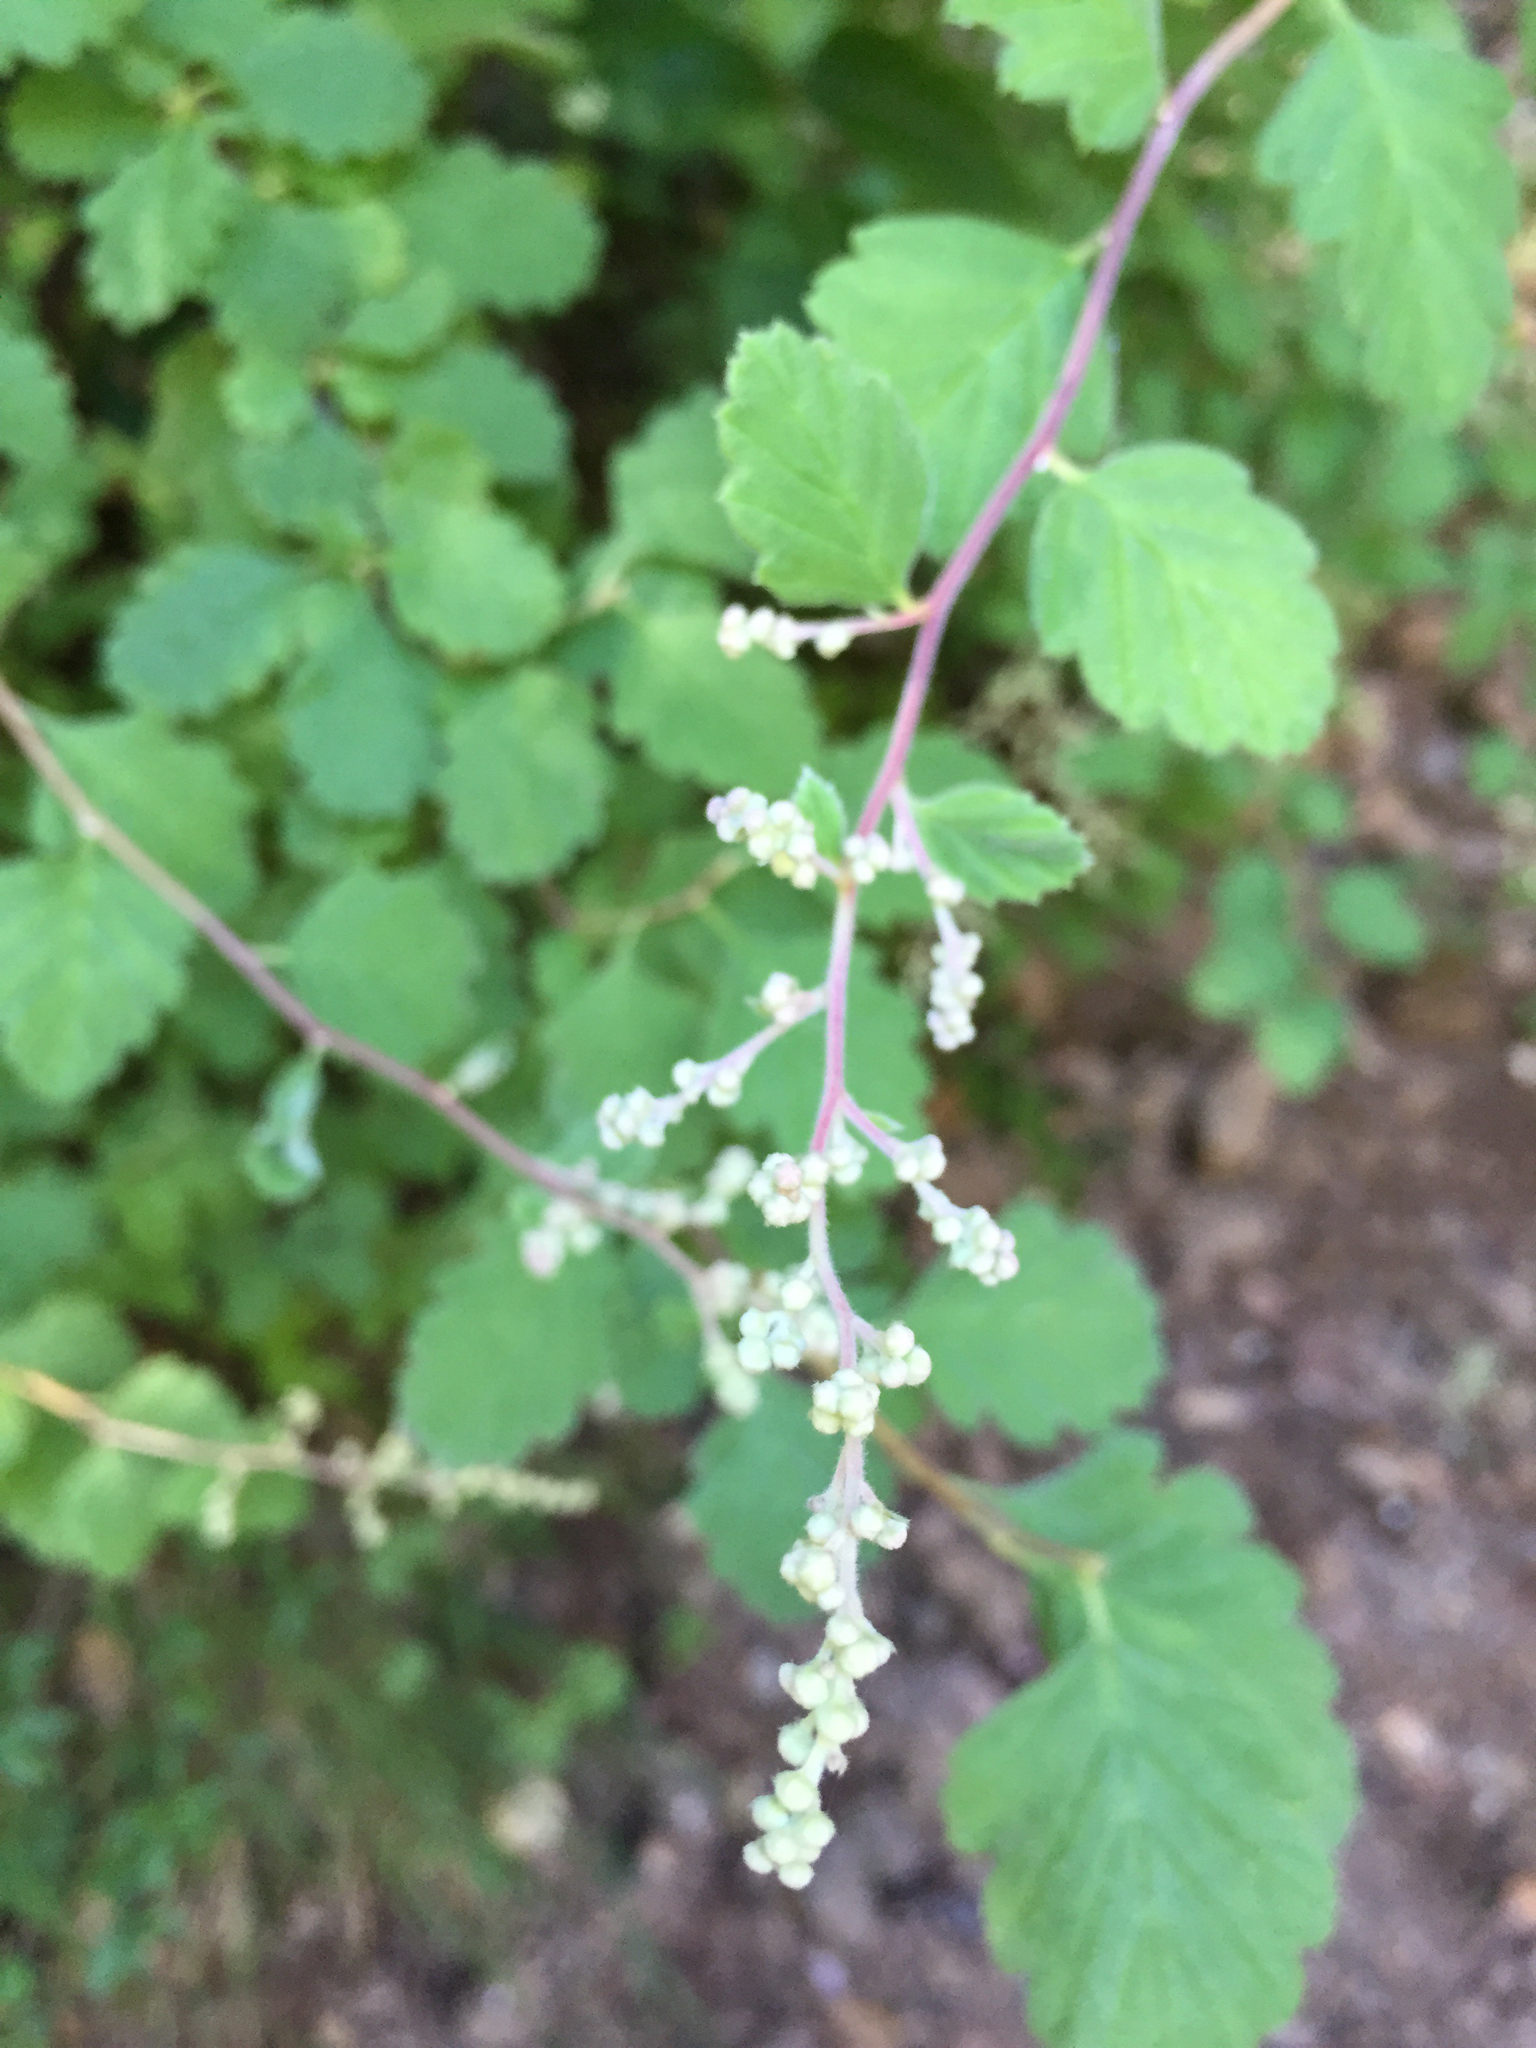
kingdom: Plantae
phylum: Tracheophyta
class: Magnoliopsida
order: Rosales
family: Rosaceae
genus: Holodiscus
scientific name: Holodiscus discolor
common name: Oceanspray
